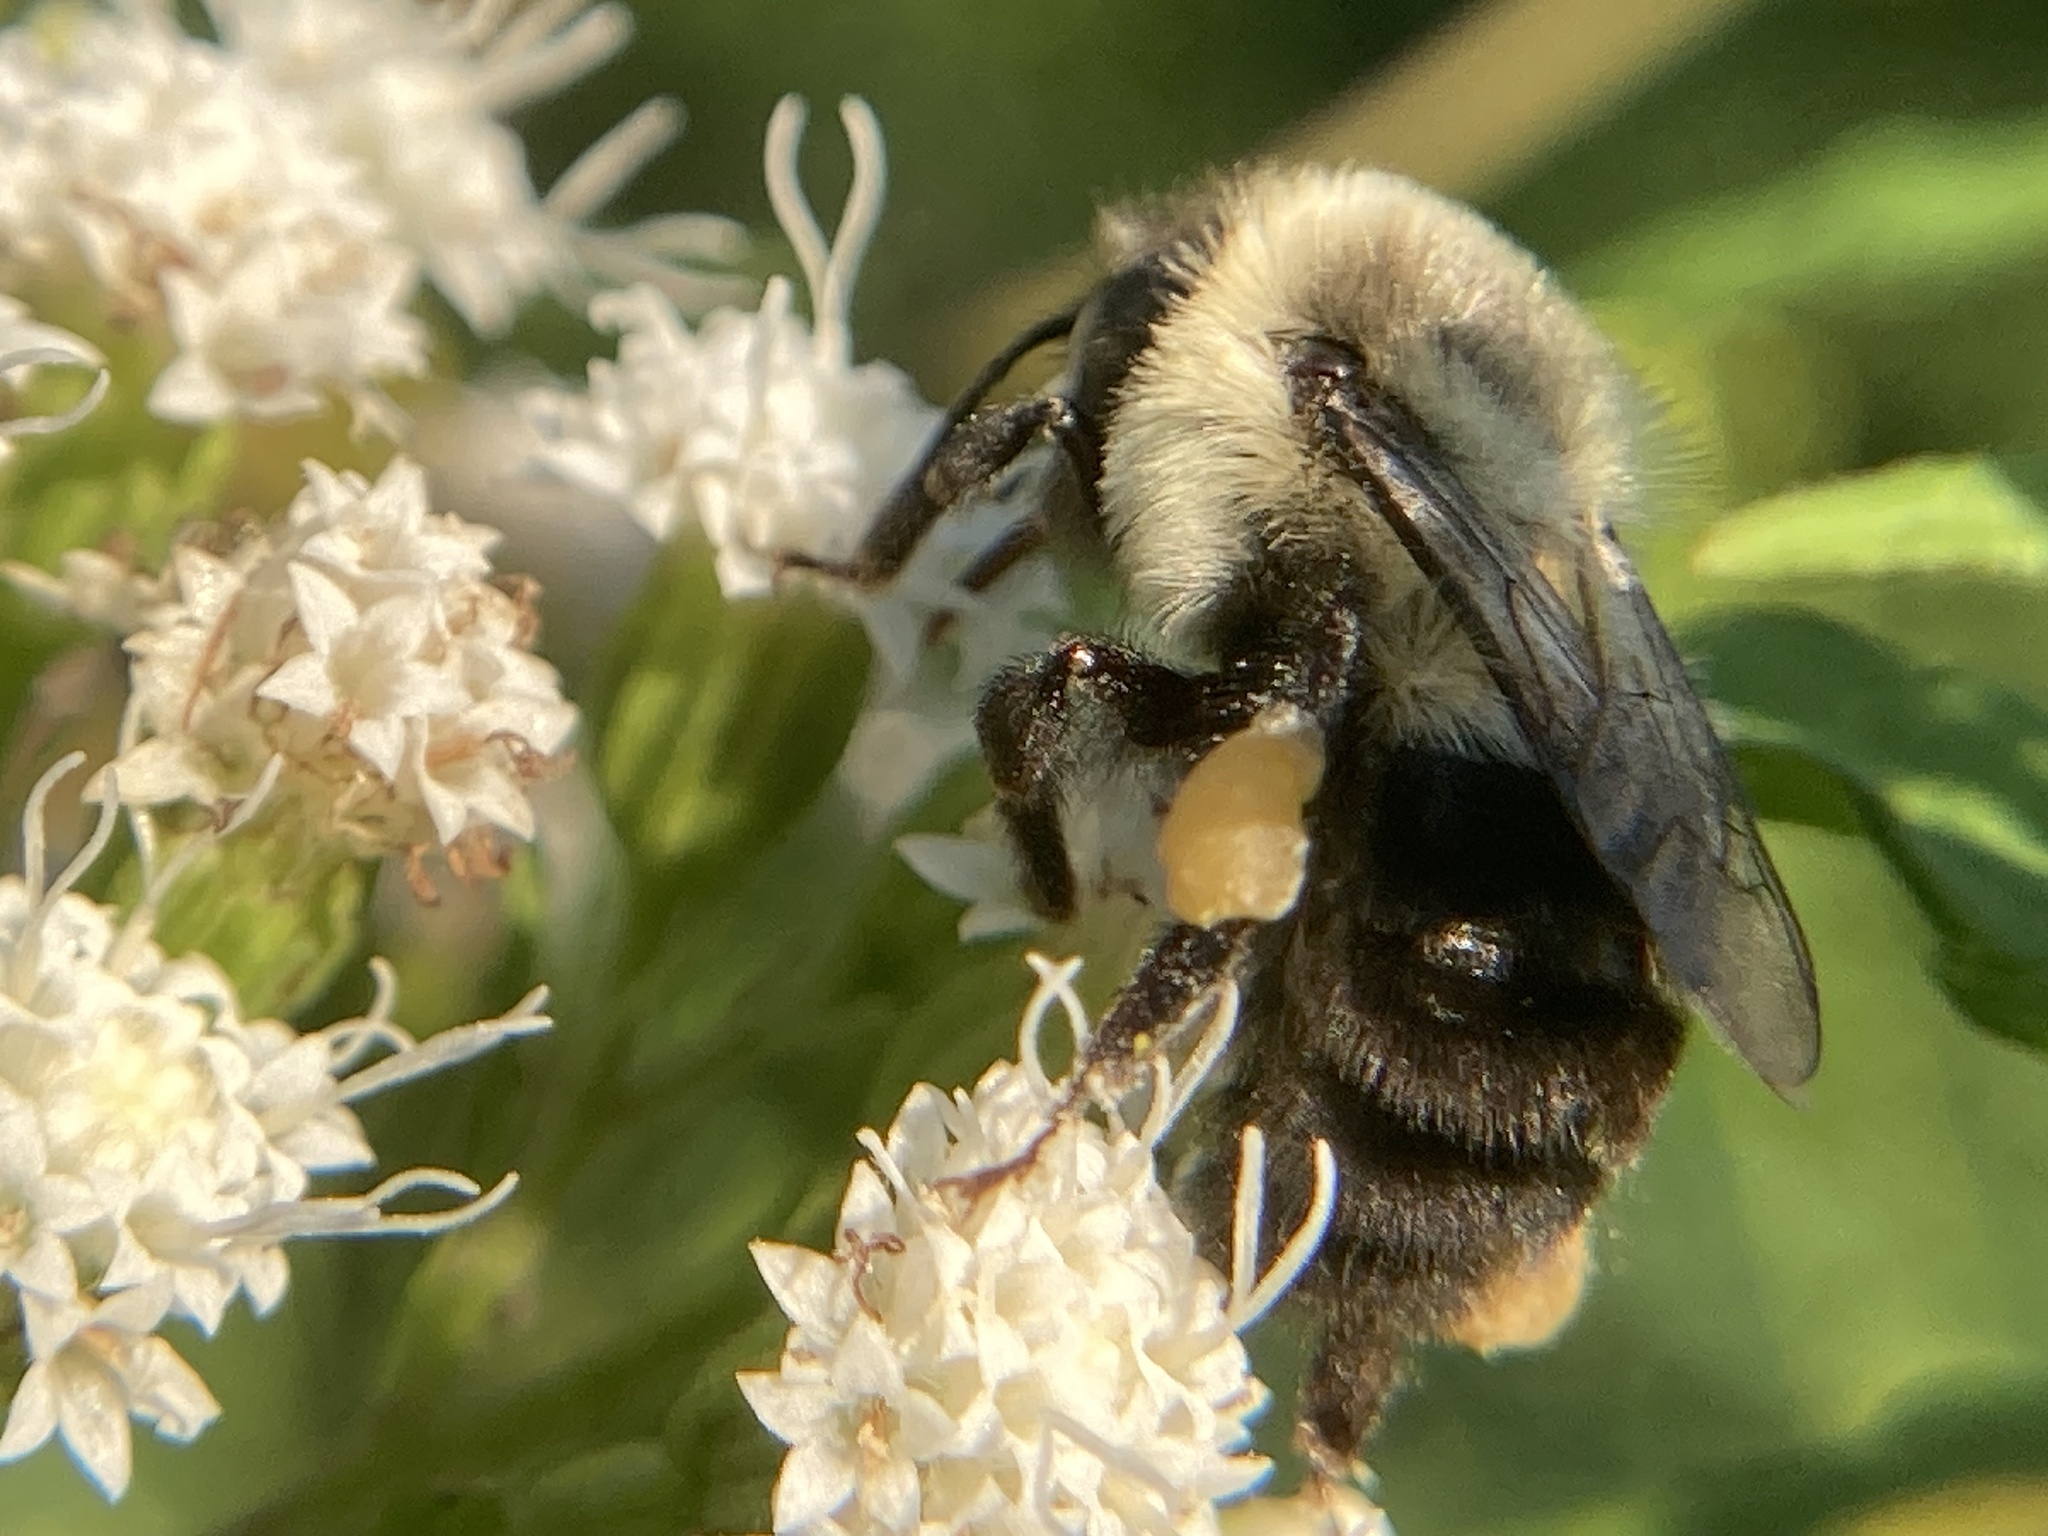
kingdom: Animalia
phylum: Arthropoda
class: Insecta
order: Hymenoptera
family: Apidae
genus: Bombus
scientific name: Bombus impatiens
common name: Common eastern bumble bee
